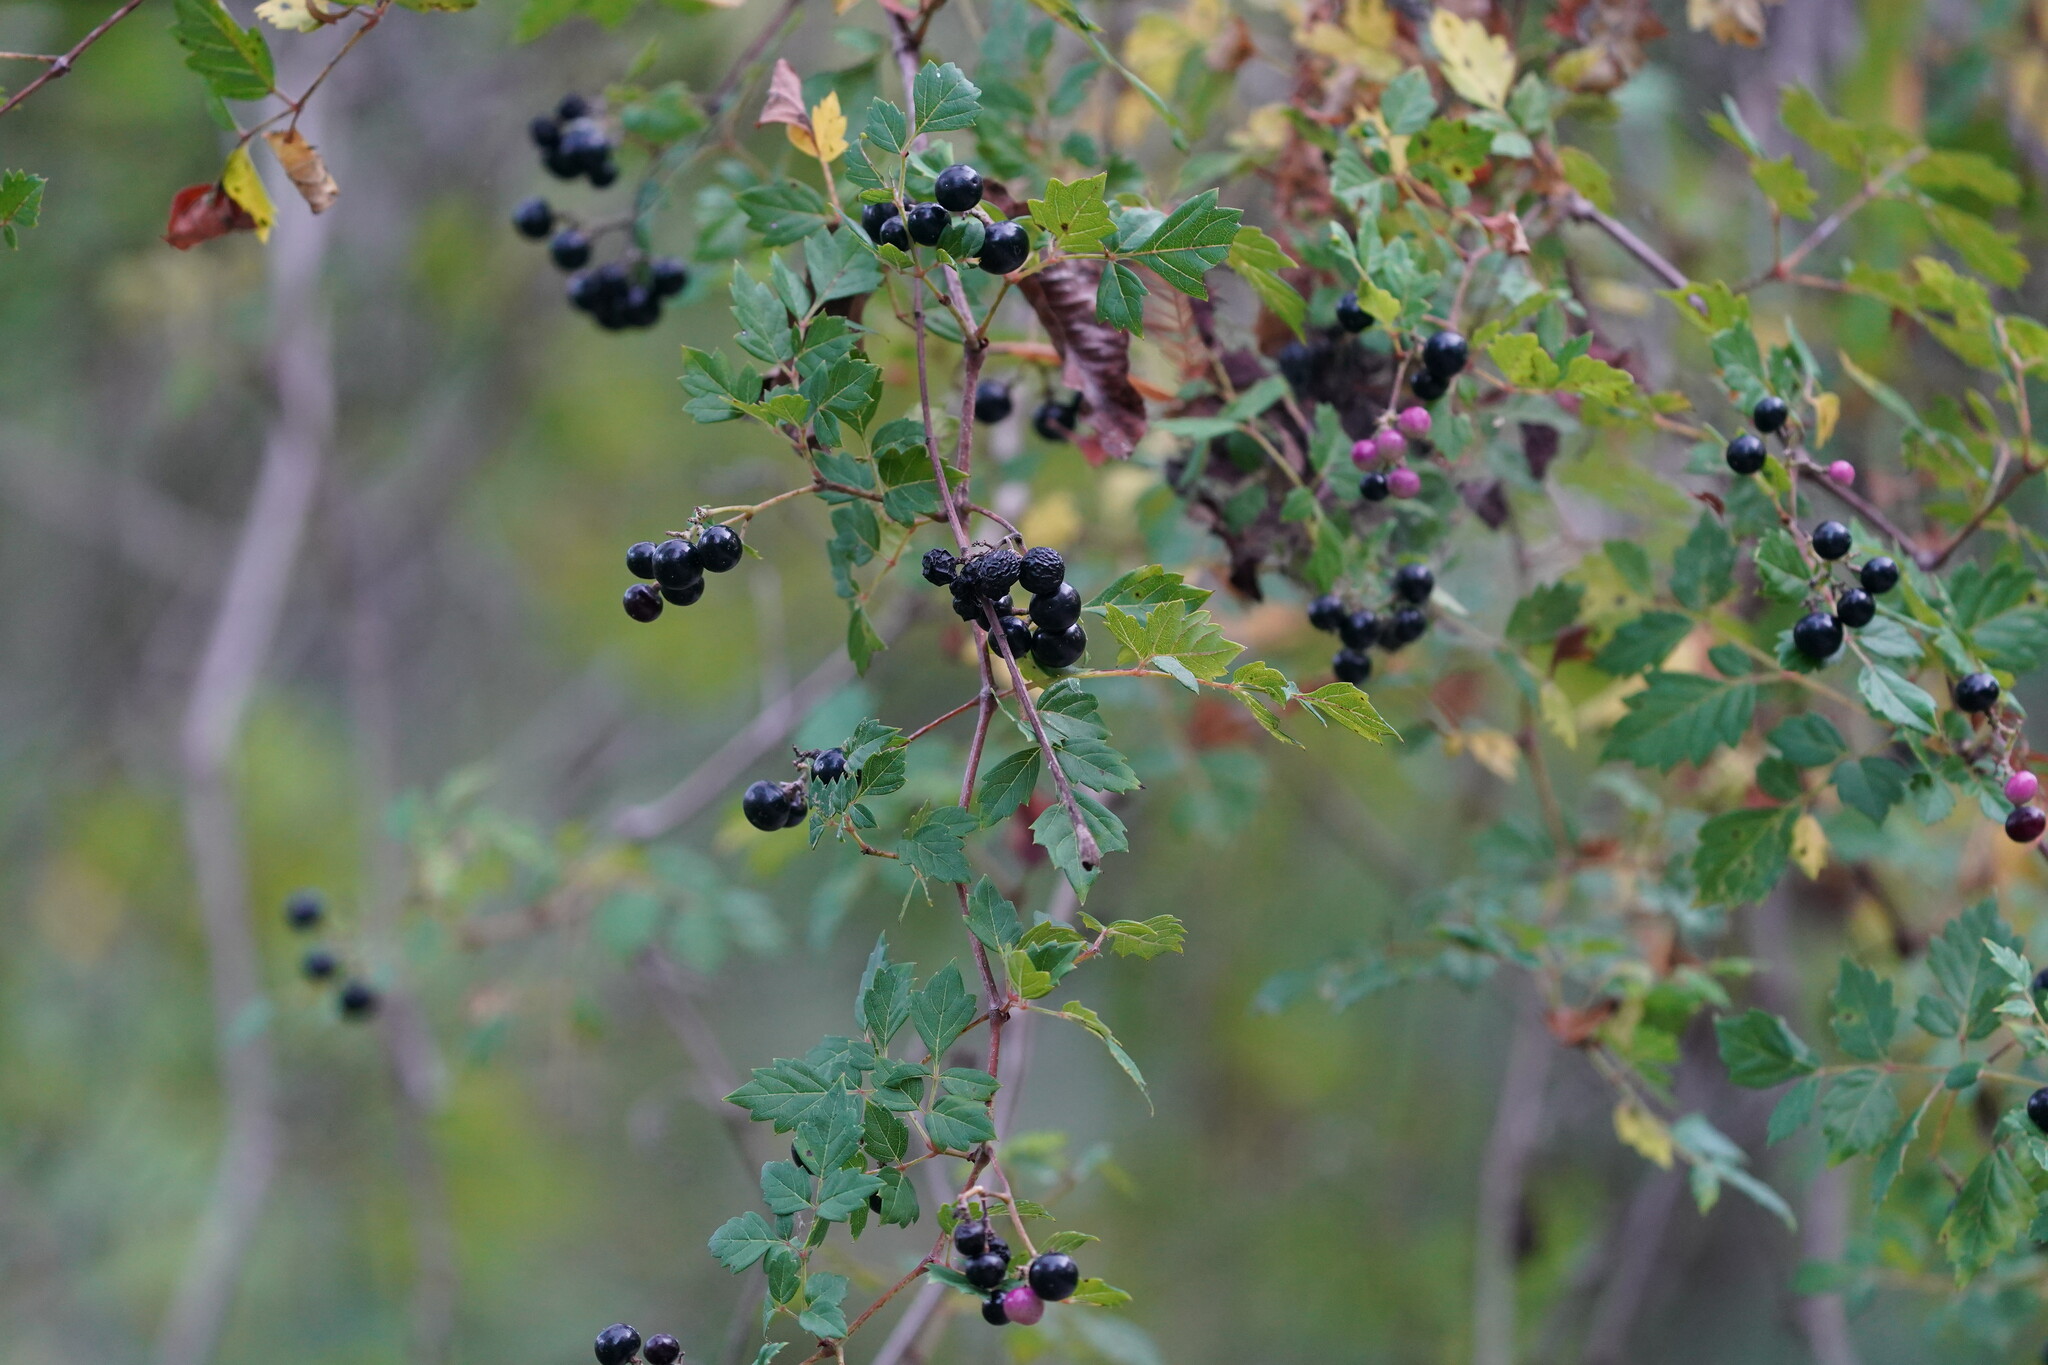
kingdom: Plantae
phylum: Tracheophyta
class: Magnoliopsida
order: Vitales
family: Vitaceae
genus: Nekemias
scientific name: Nekemias arborea
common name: Peppervine
